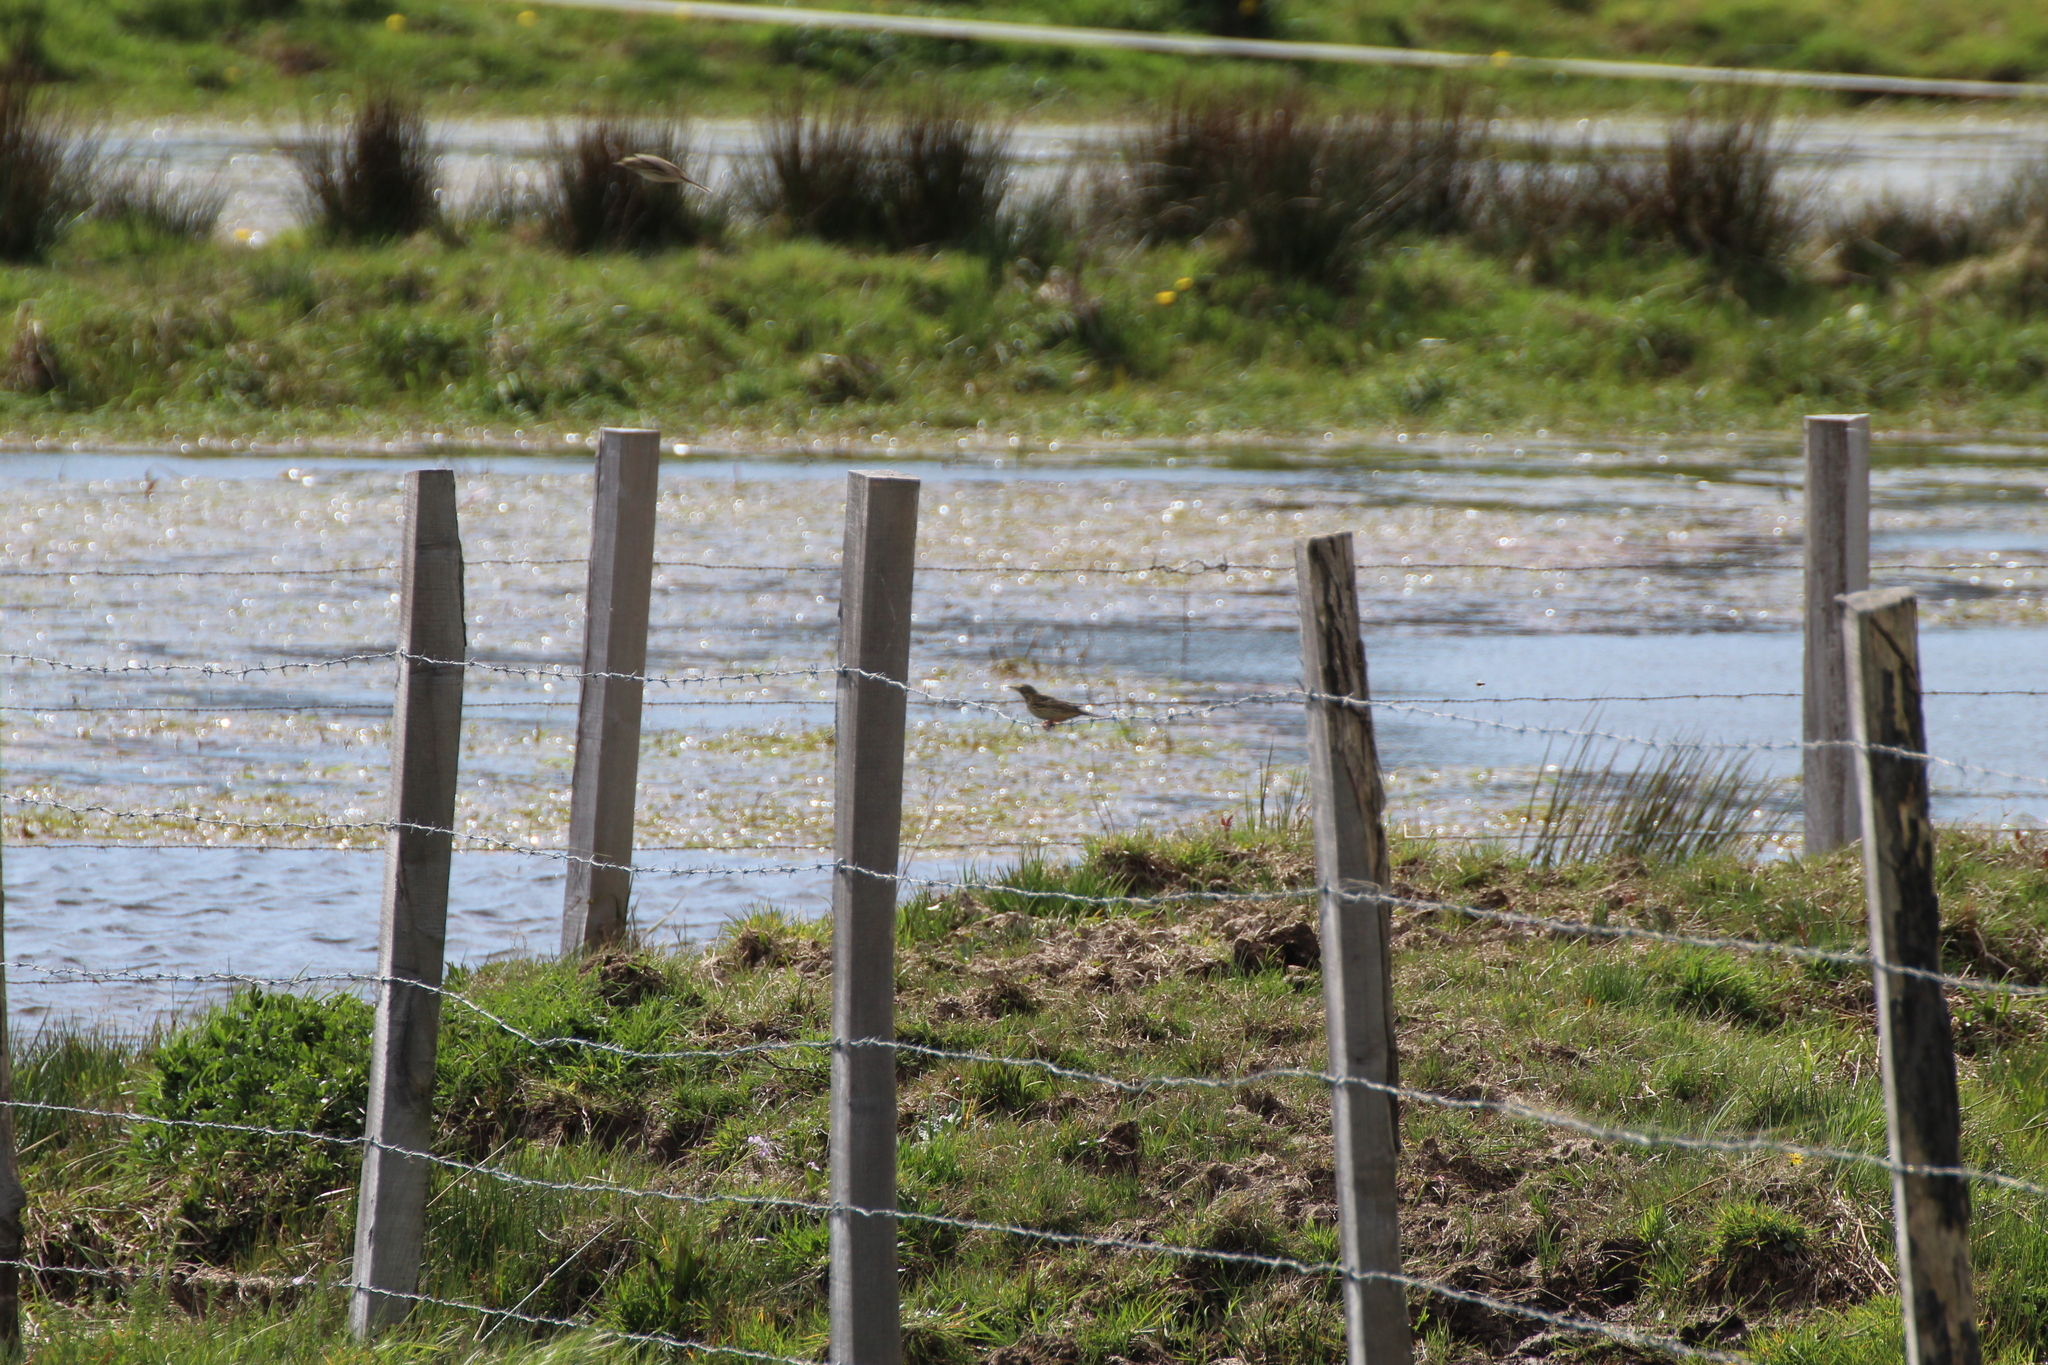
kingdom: Animalia
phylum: Chordata
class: Aves
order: Passeriformes
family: Motacillidae
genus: Anthus
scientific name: Anthus pratensis
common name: Meadow pipit
